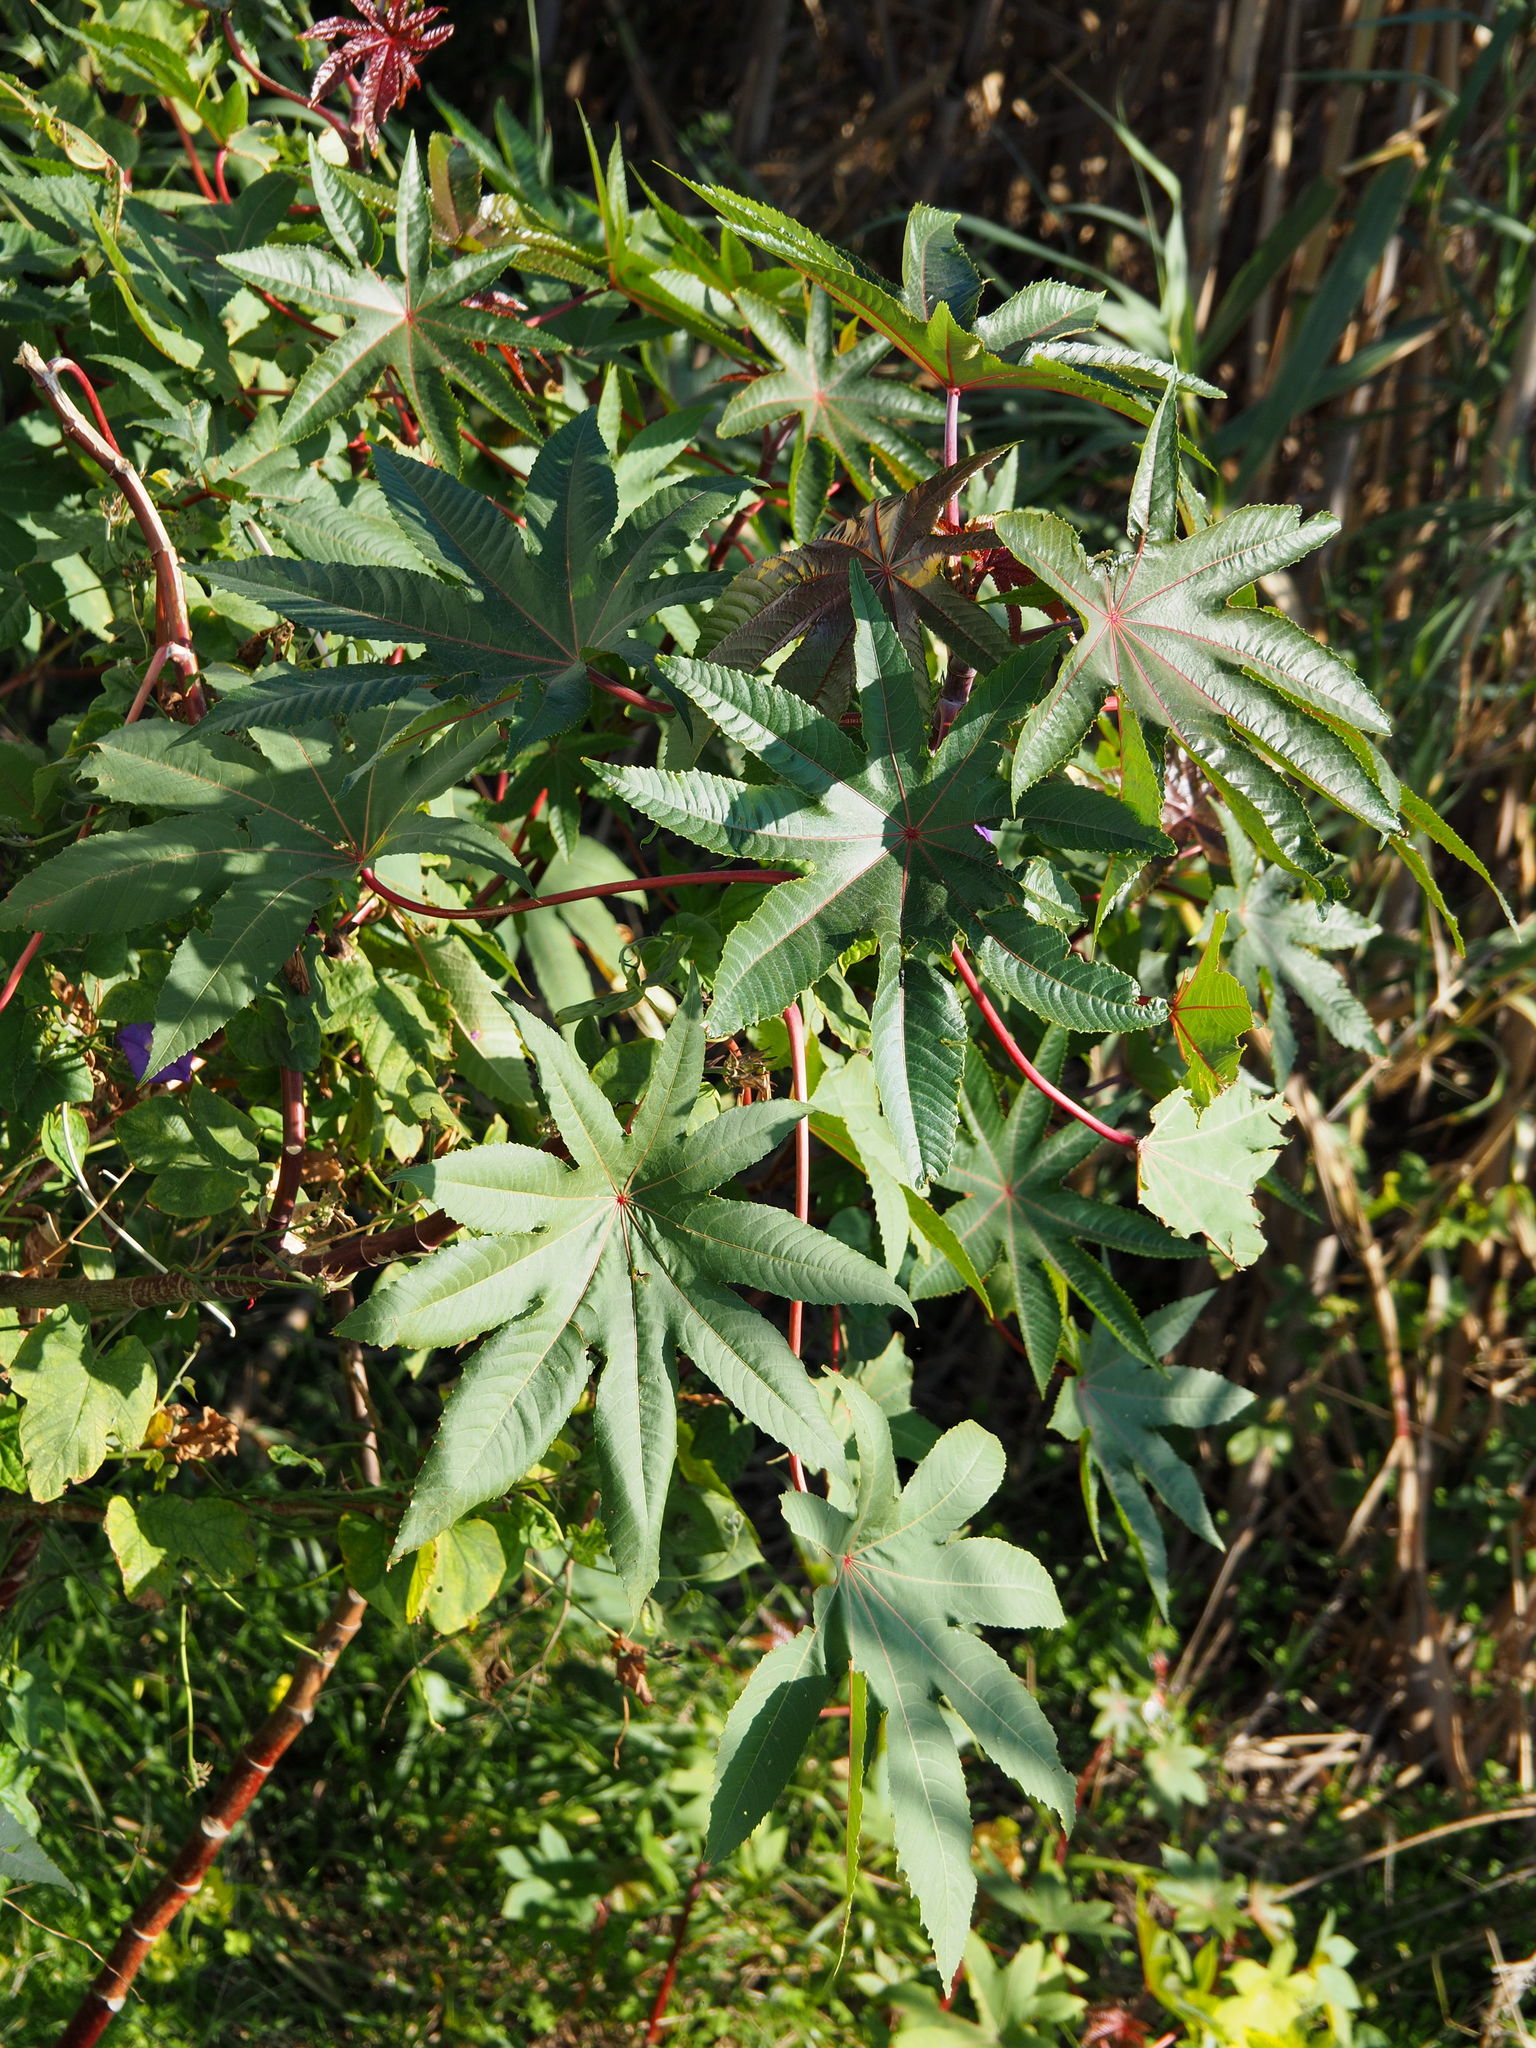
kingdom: Plantae
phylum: Tracheophyta
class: Magnoliopsida
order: Malpighiales
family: Euphorbiaceae
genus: Ricinus
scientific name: Ricinus communis
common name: Castor-oil-plant
